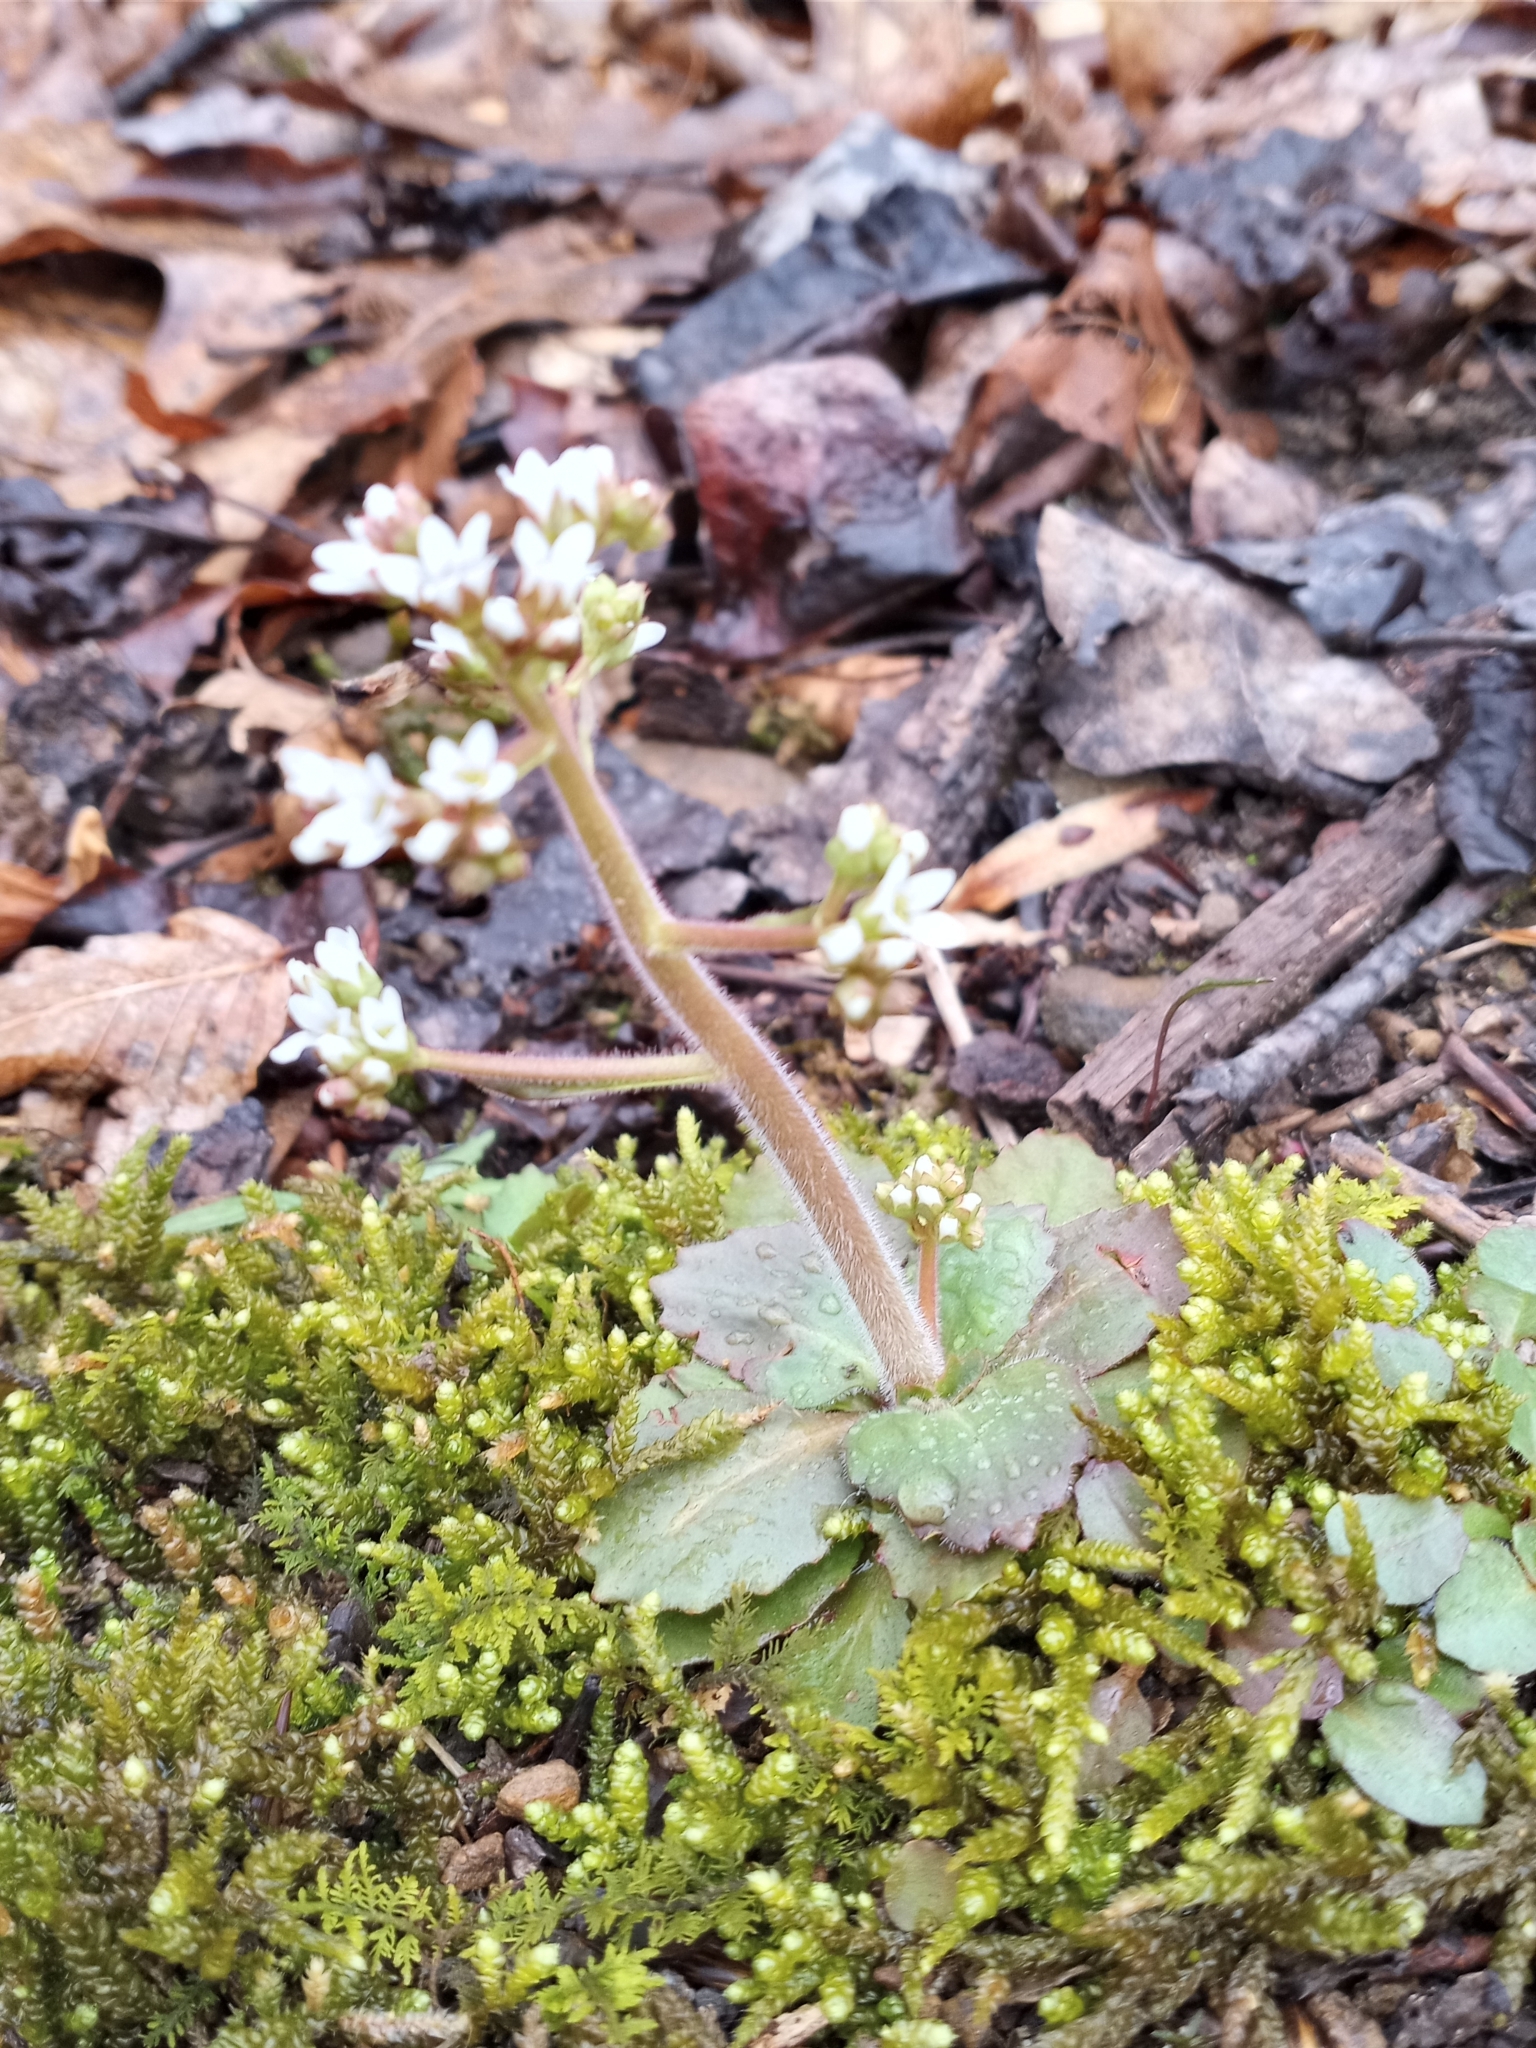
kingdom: Plantae
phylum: Tracheophyta
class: Magnoliopsida
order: Saxifragales
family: Saxifragaceae
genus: Micranthes
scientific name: Micranthes virginiensis
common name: Early saxifrage
